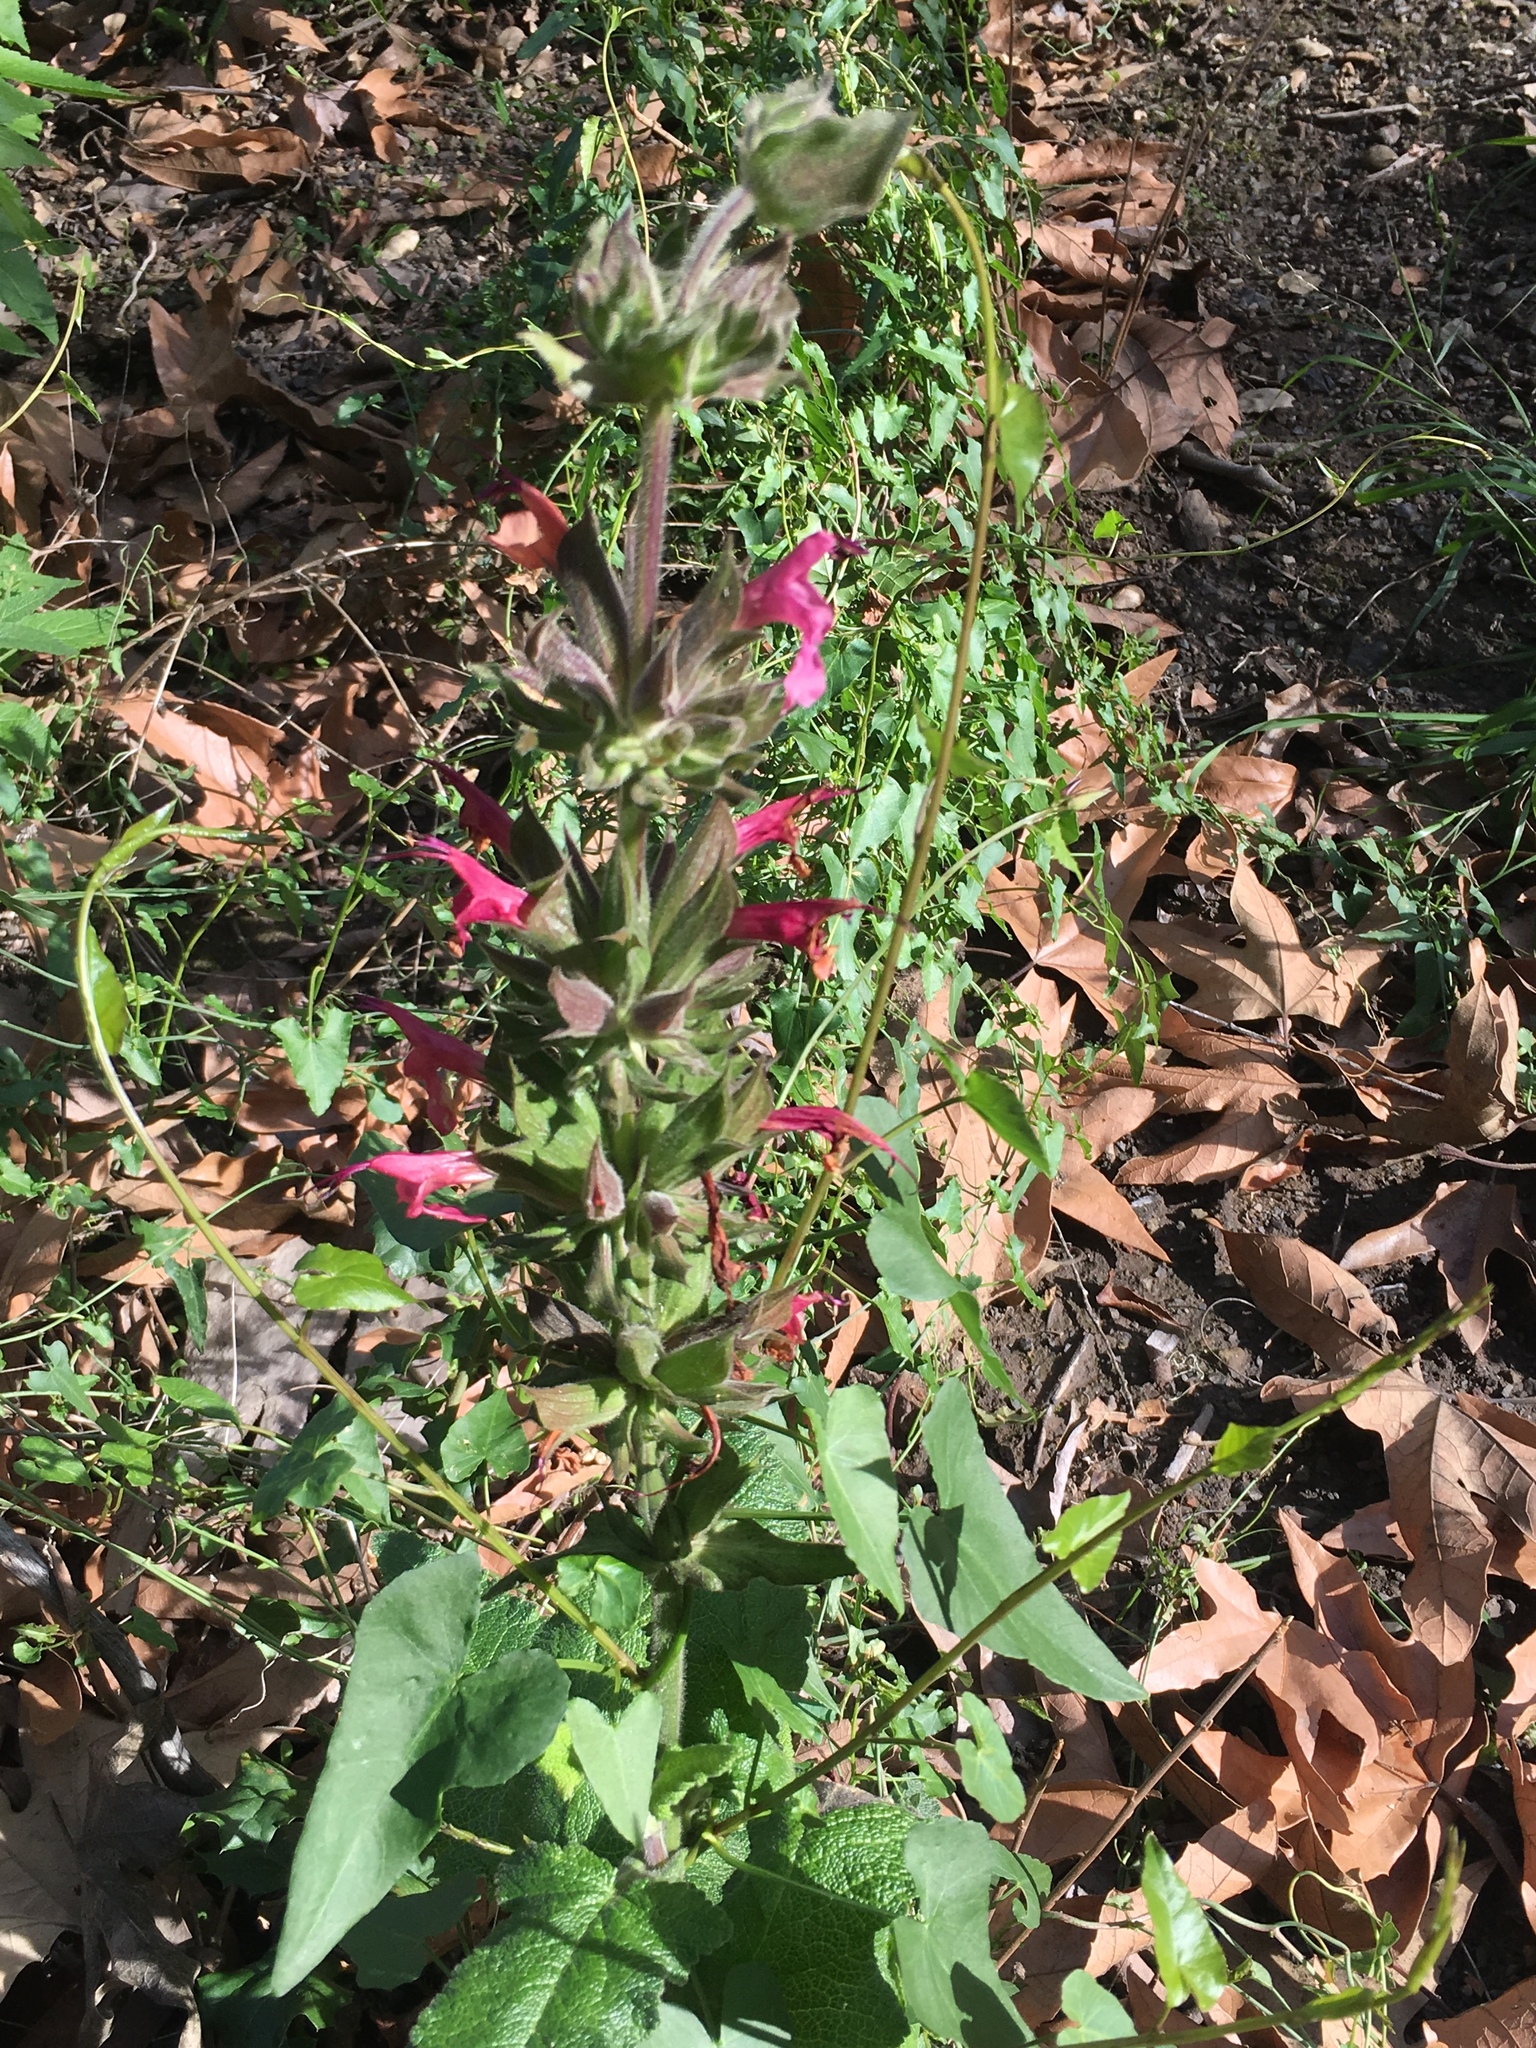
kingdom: Plantae
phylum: Tracheophyta
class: Magnoliopsida
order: Lamiales
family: Lamiaceae
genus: Salvia
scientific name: Salvia spathacea
